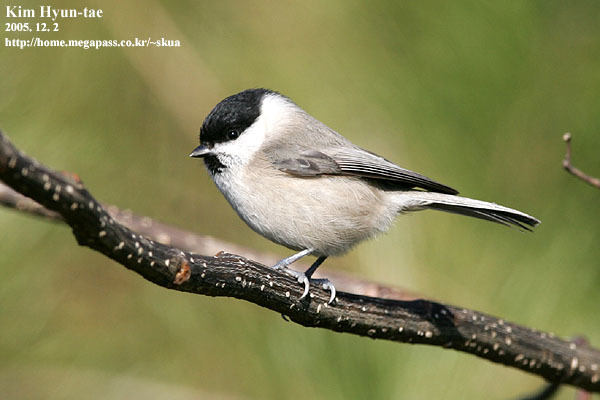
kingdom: Animalia
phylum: Chordata
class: Aves
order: Passeriformes
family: Paridae
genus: Poecile
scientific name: Poecile palustris
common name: Marsh tit
